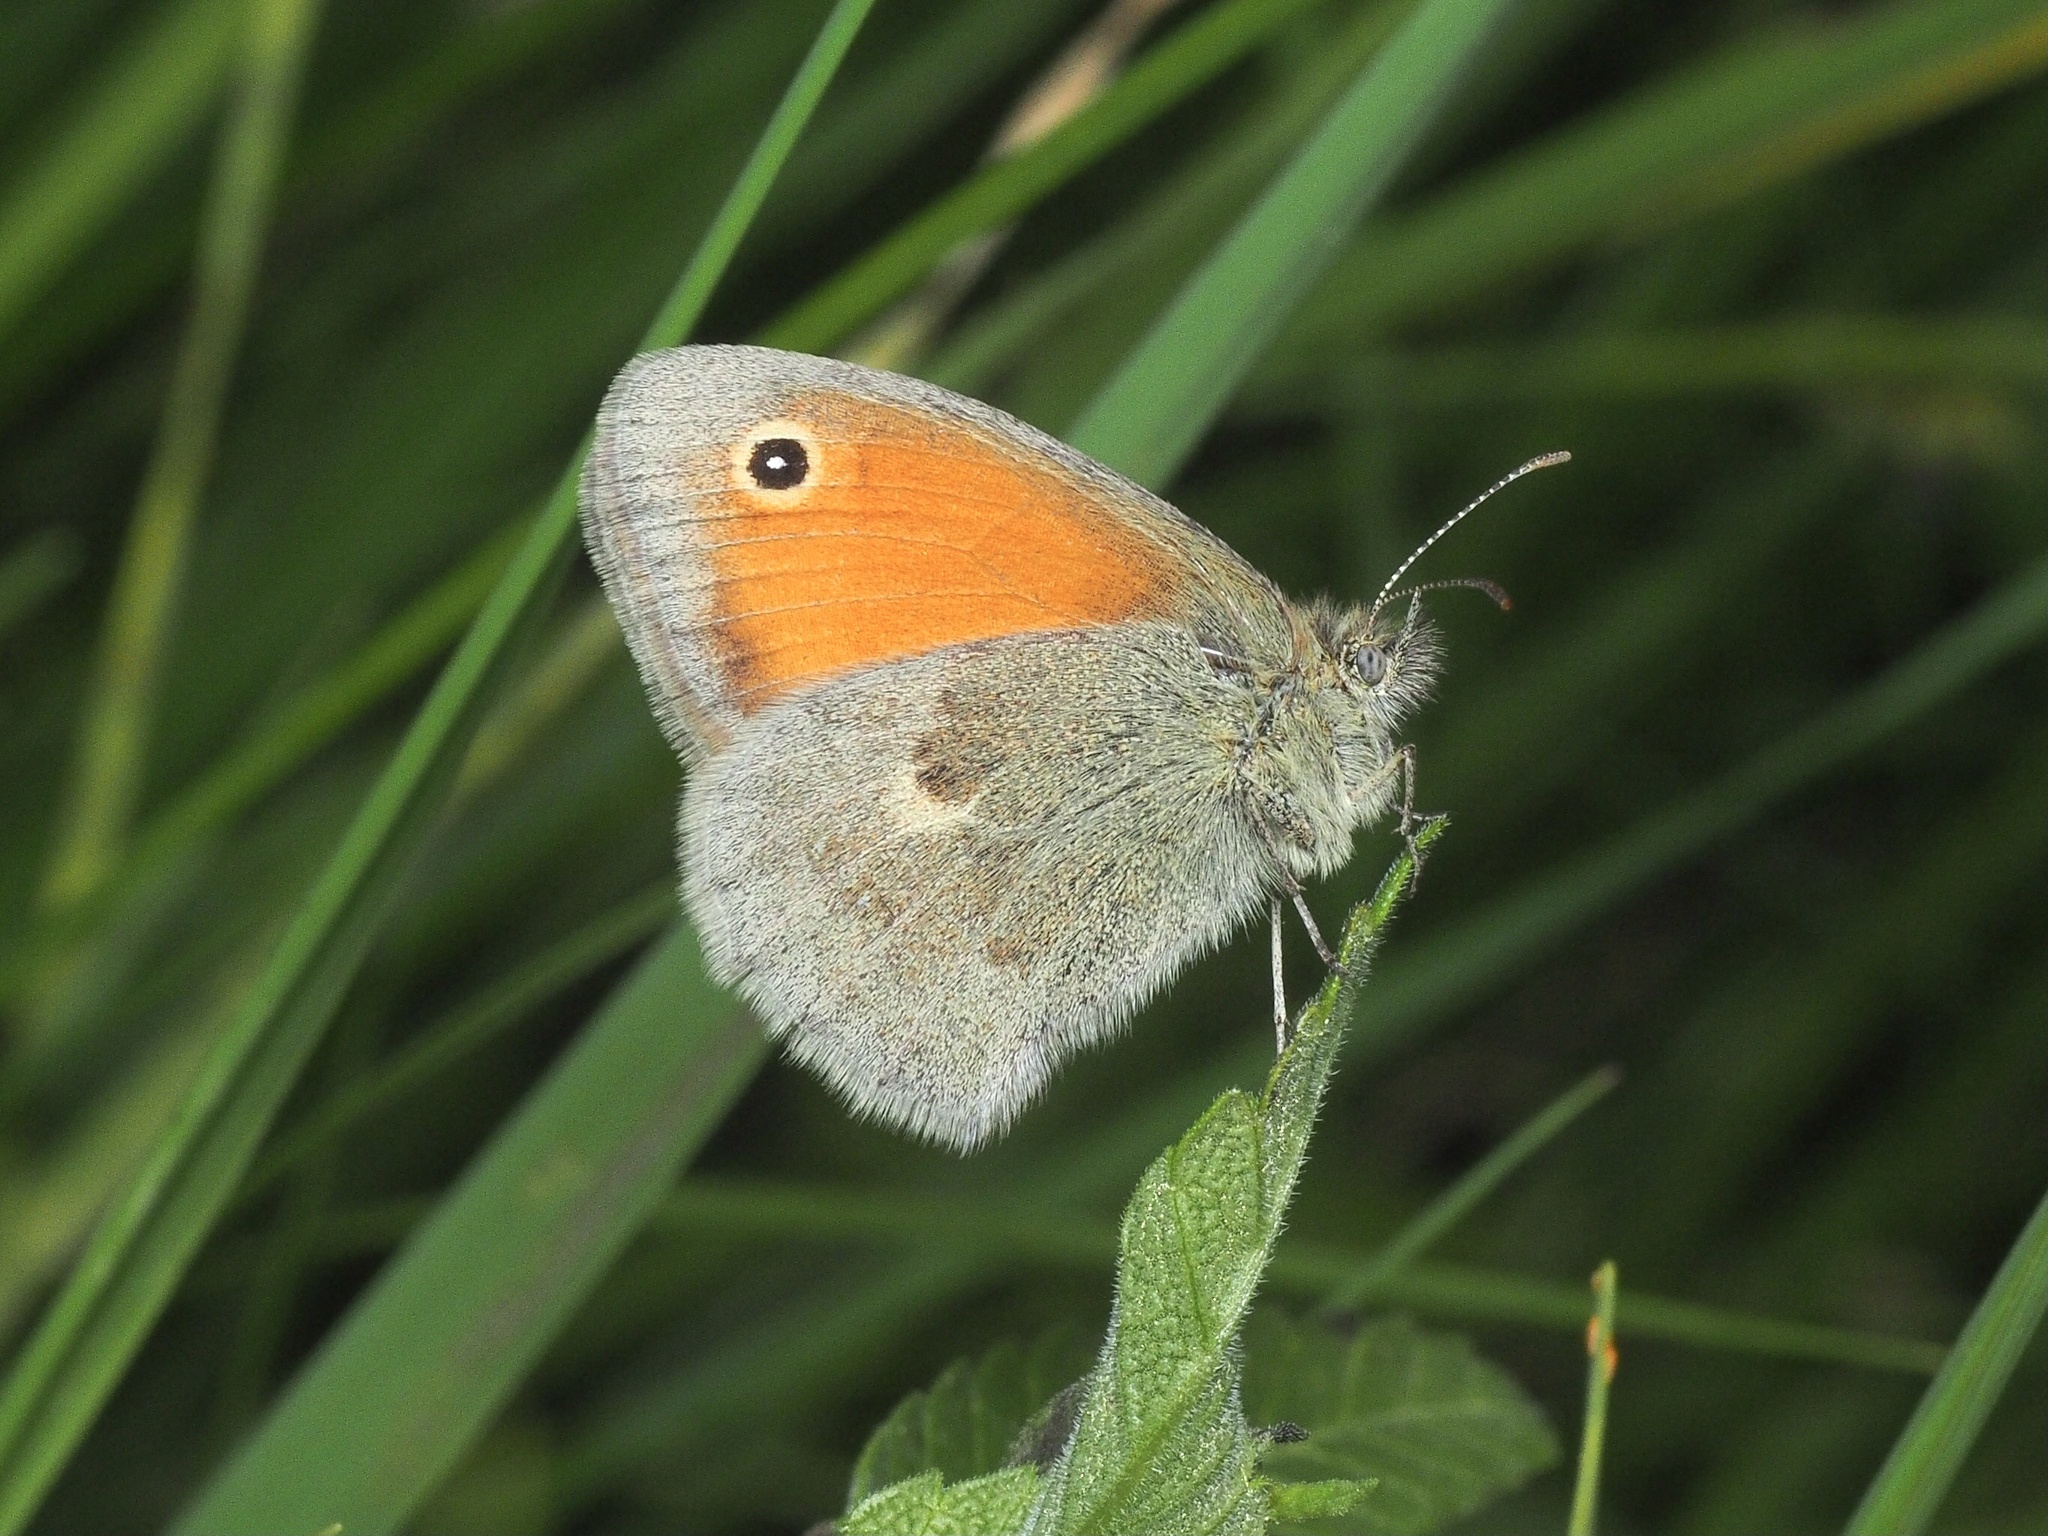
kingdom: Animalia
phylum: Arthropoda
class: Insecta
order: Lepidoptera
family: Nymphalidae
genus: Coenonympha
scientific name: Coenonympha pamphilus
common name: Small heath
